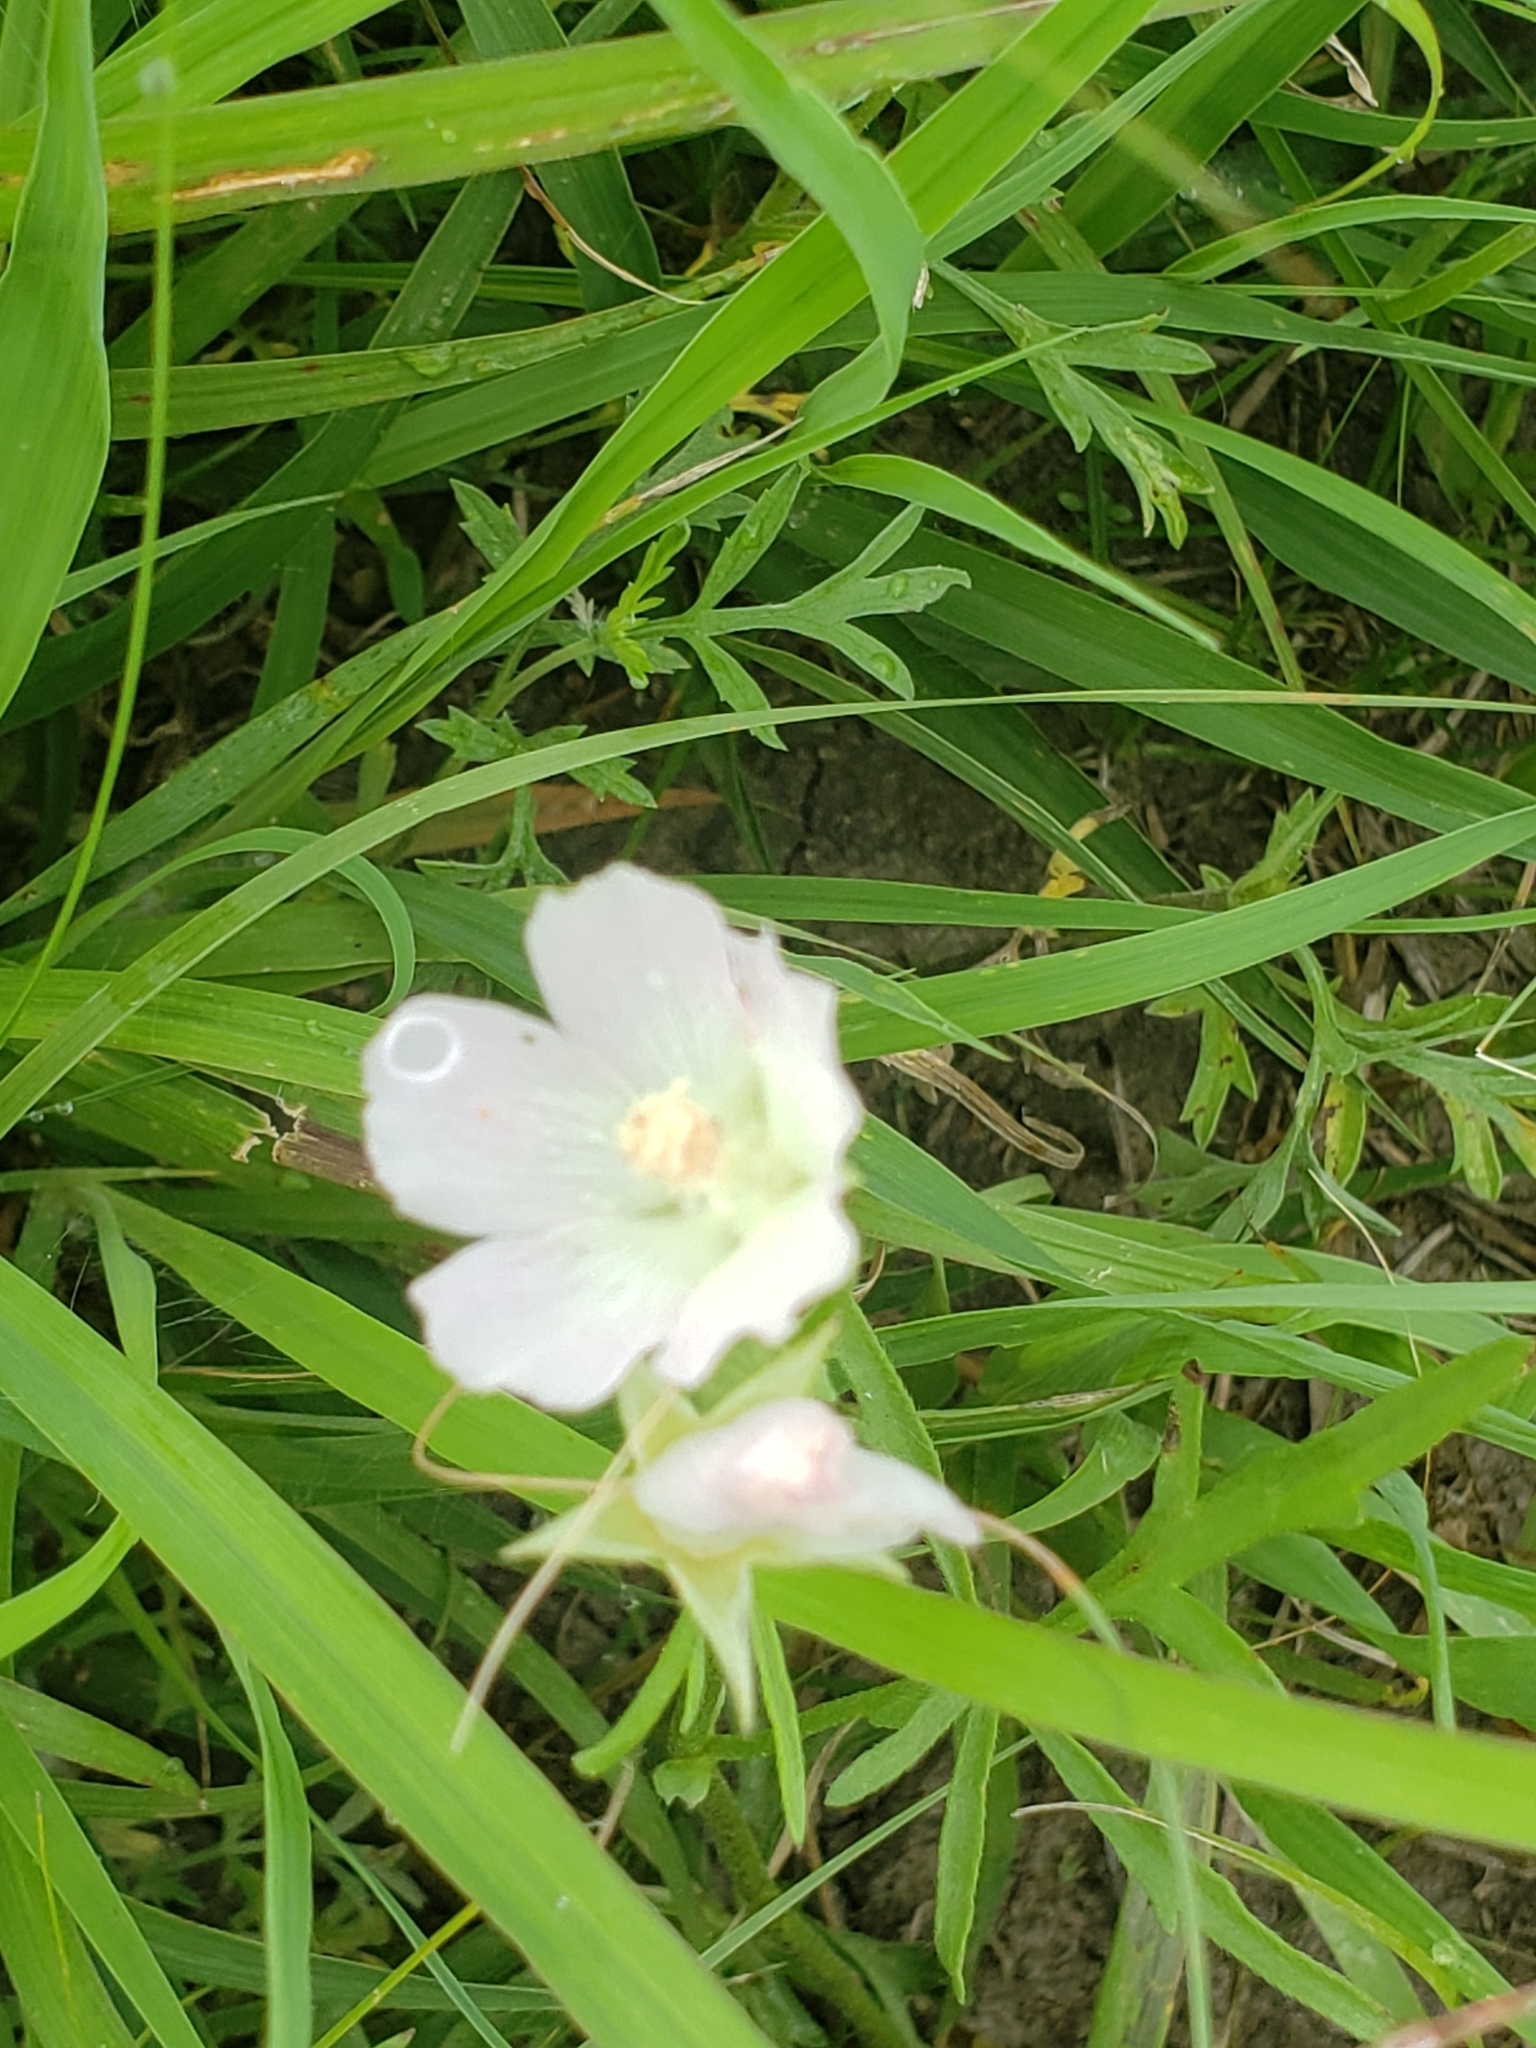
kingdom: Plantae
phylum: Tracheophyta
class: Magnoliopsida
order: Malvales
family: Malvaceae
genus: Callirhoe
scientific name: Callirhoe alcaeoides
